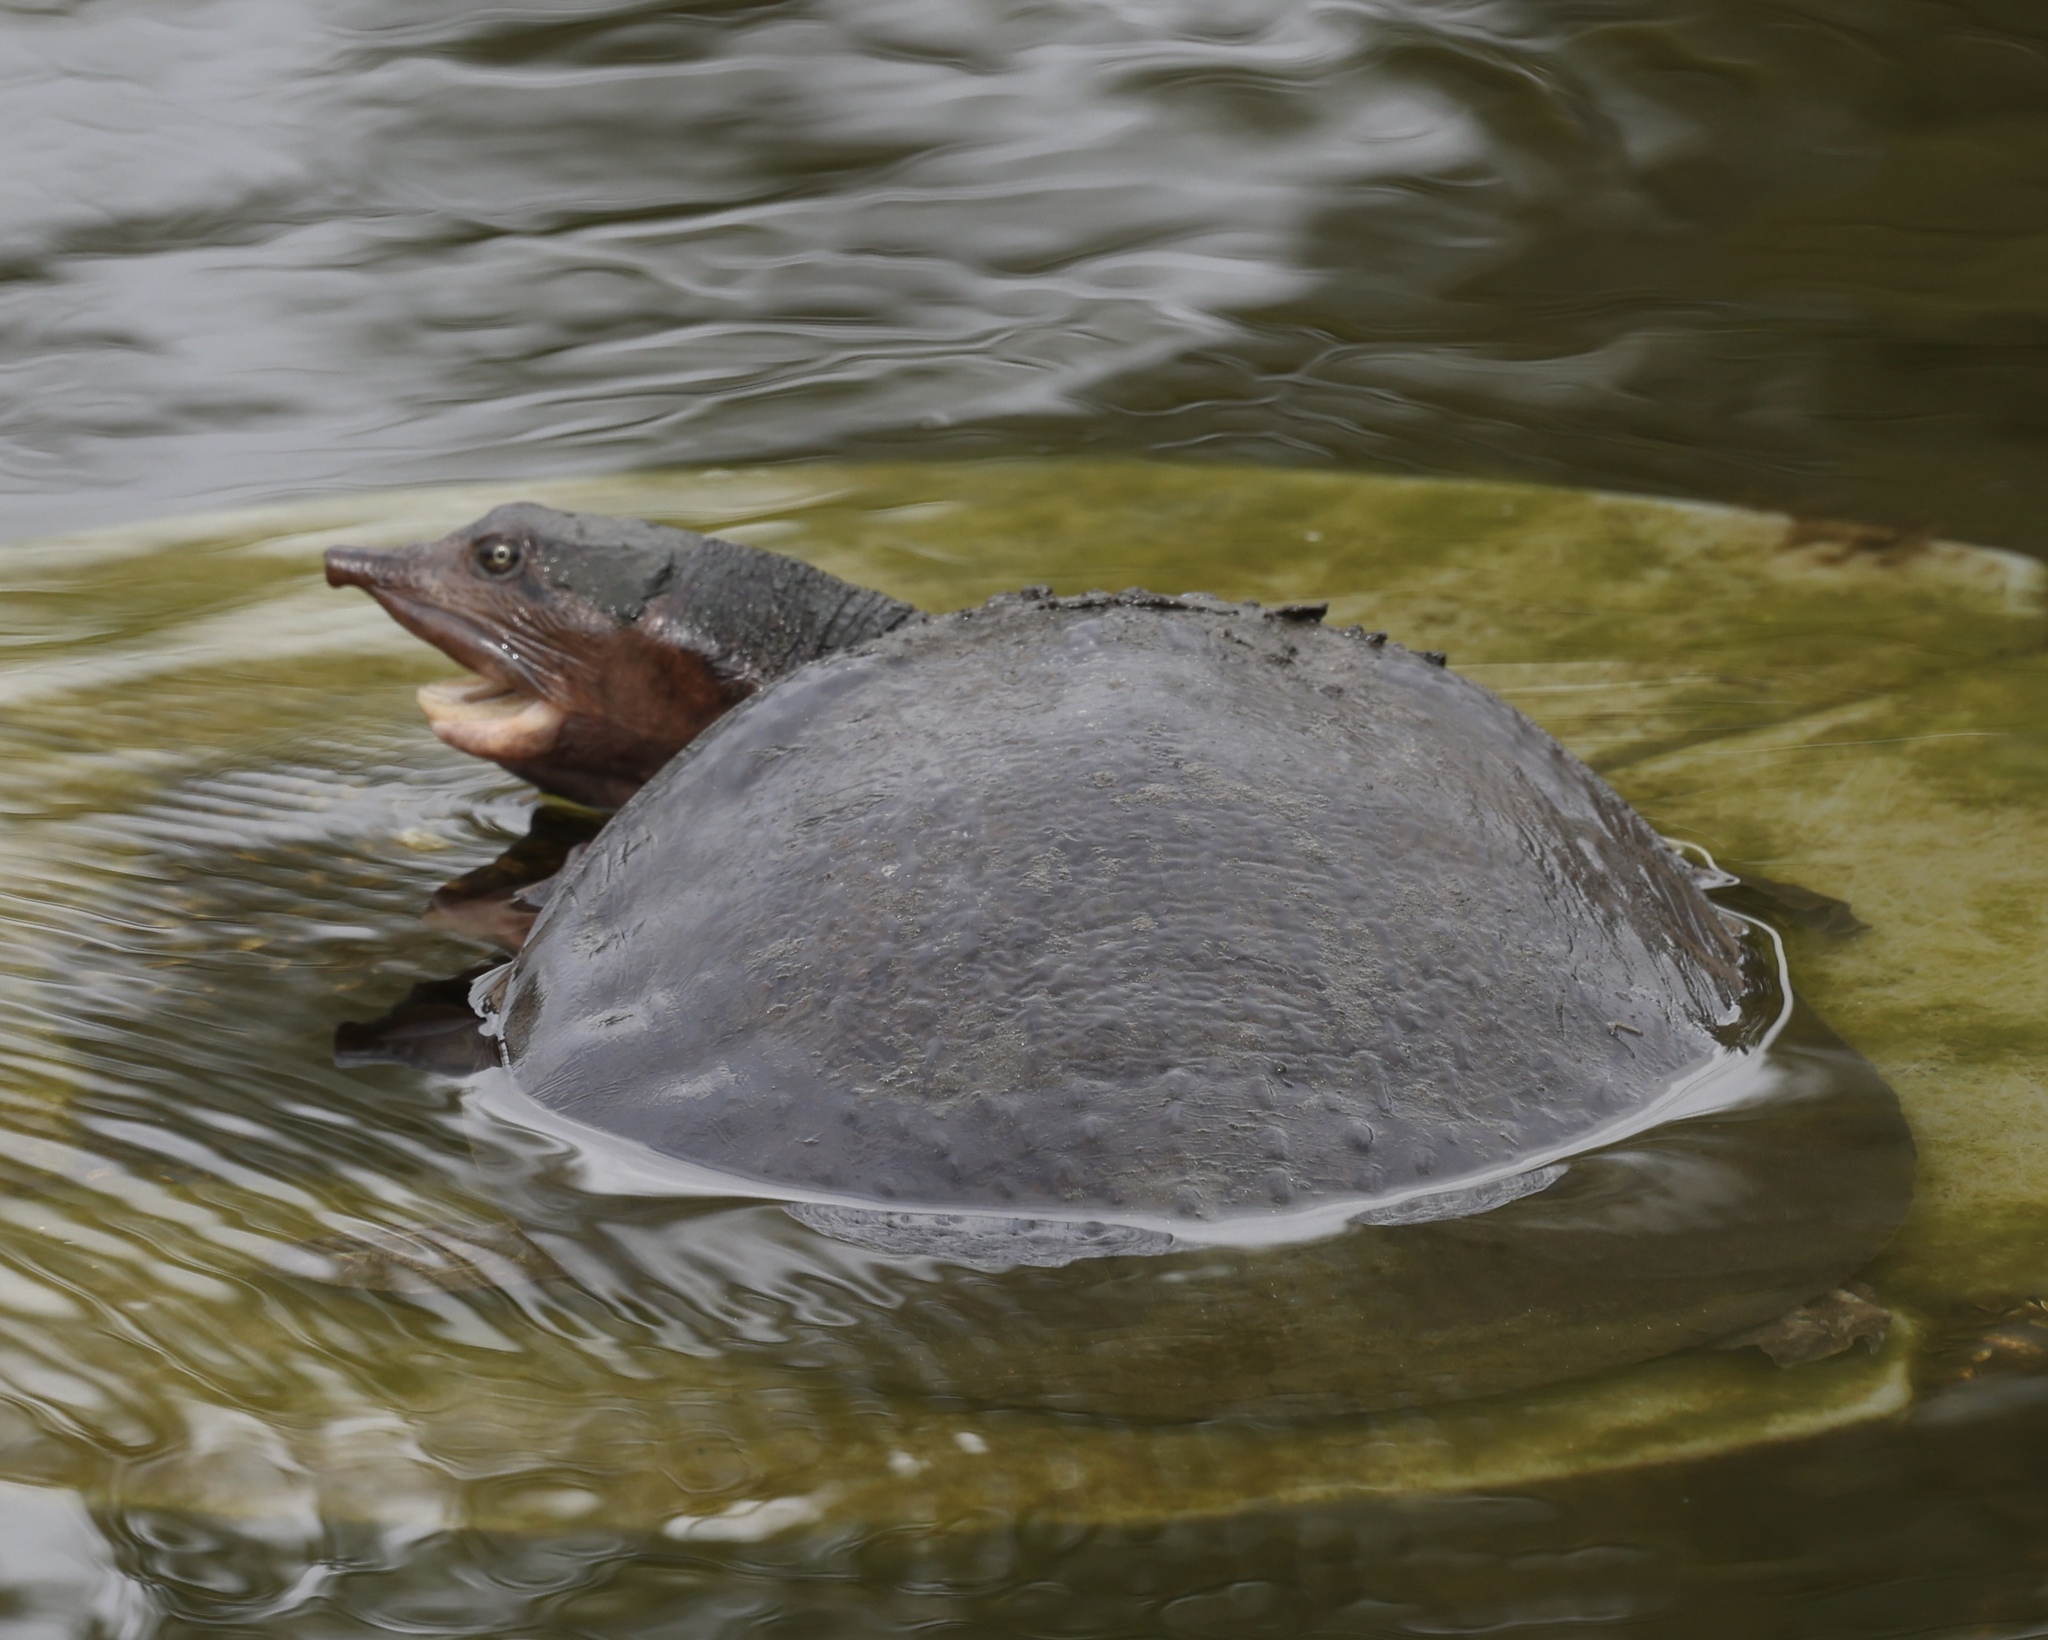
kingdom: Animalia
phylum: Chordata
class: Testudines
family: Trionychidae
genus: Apalone
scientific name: Apalone ferox
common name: Florida softshell turtle
